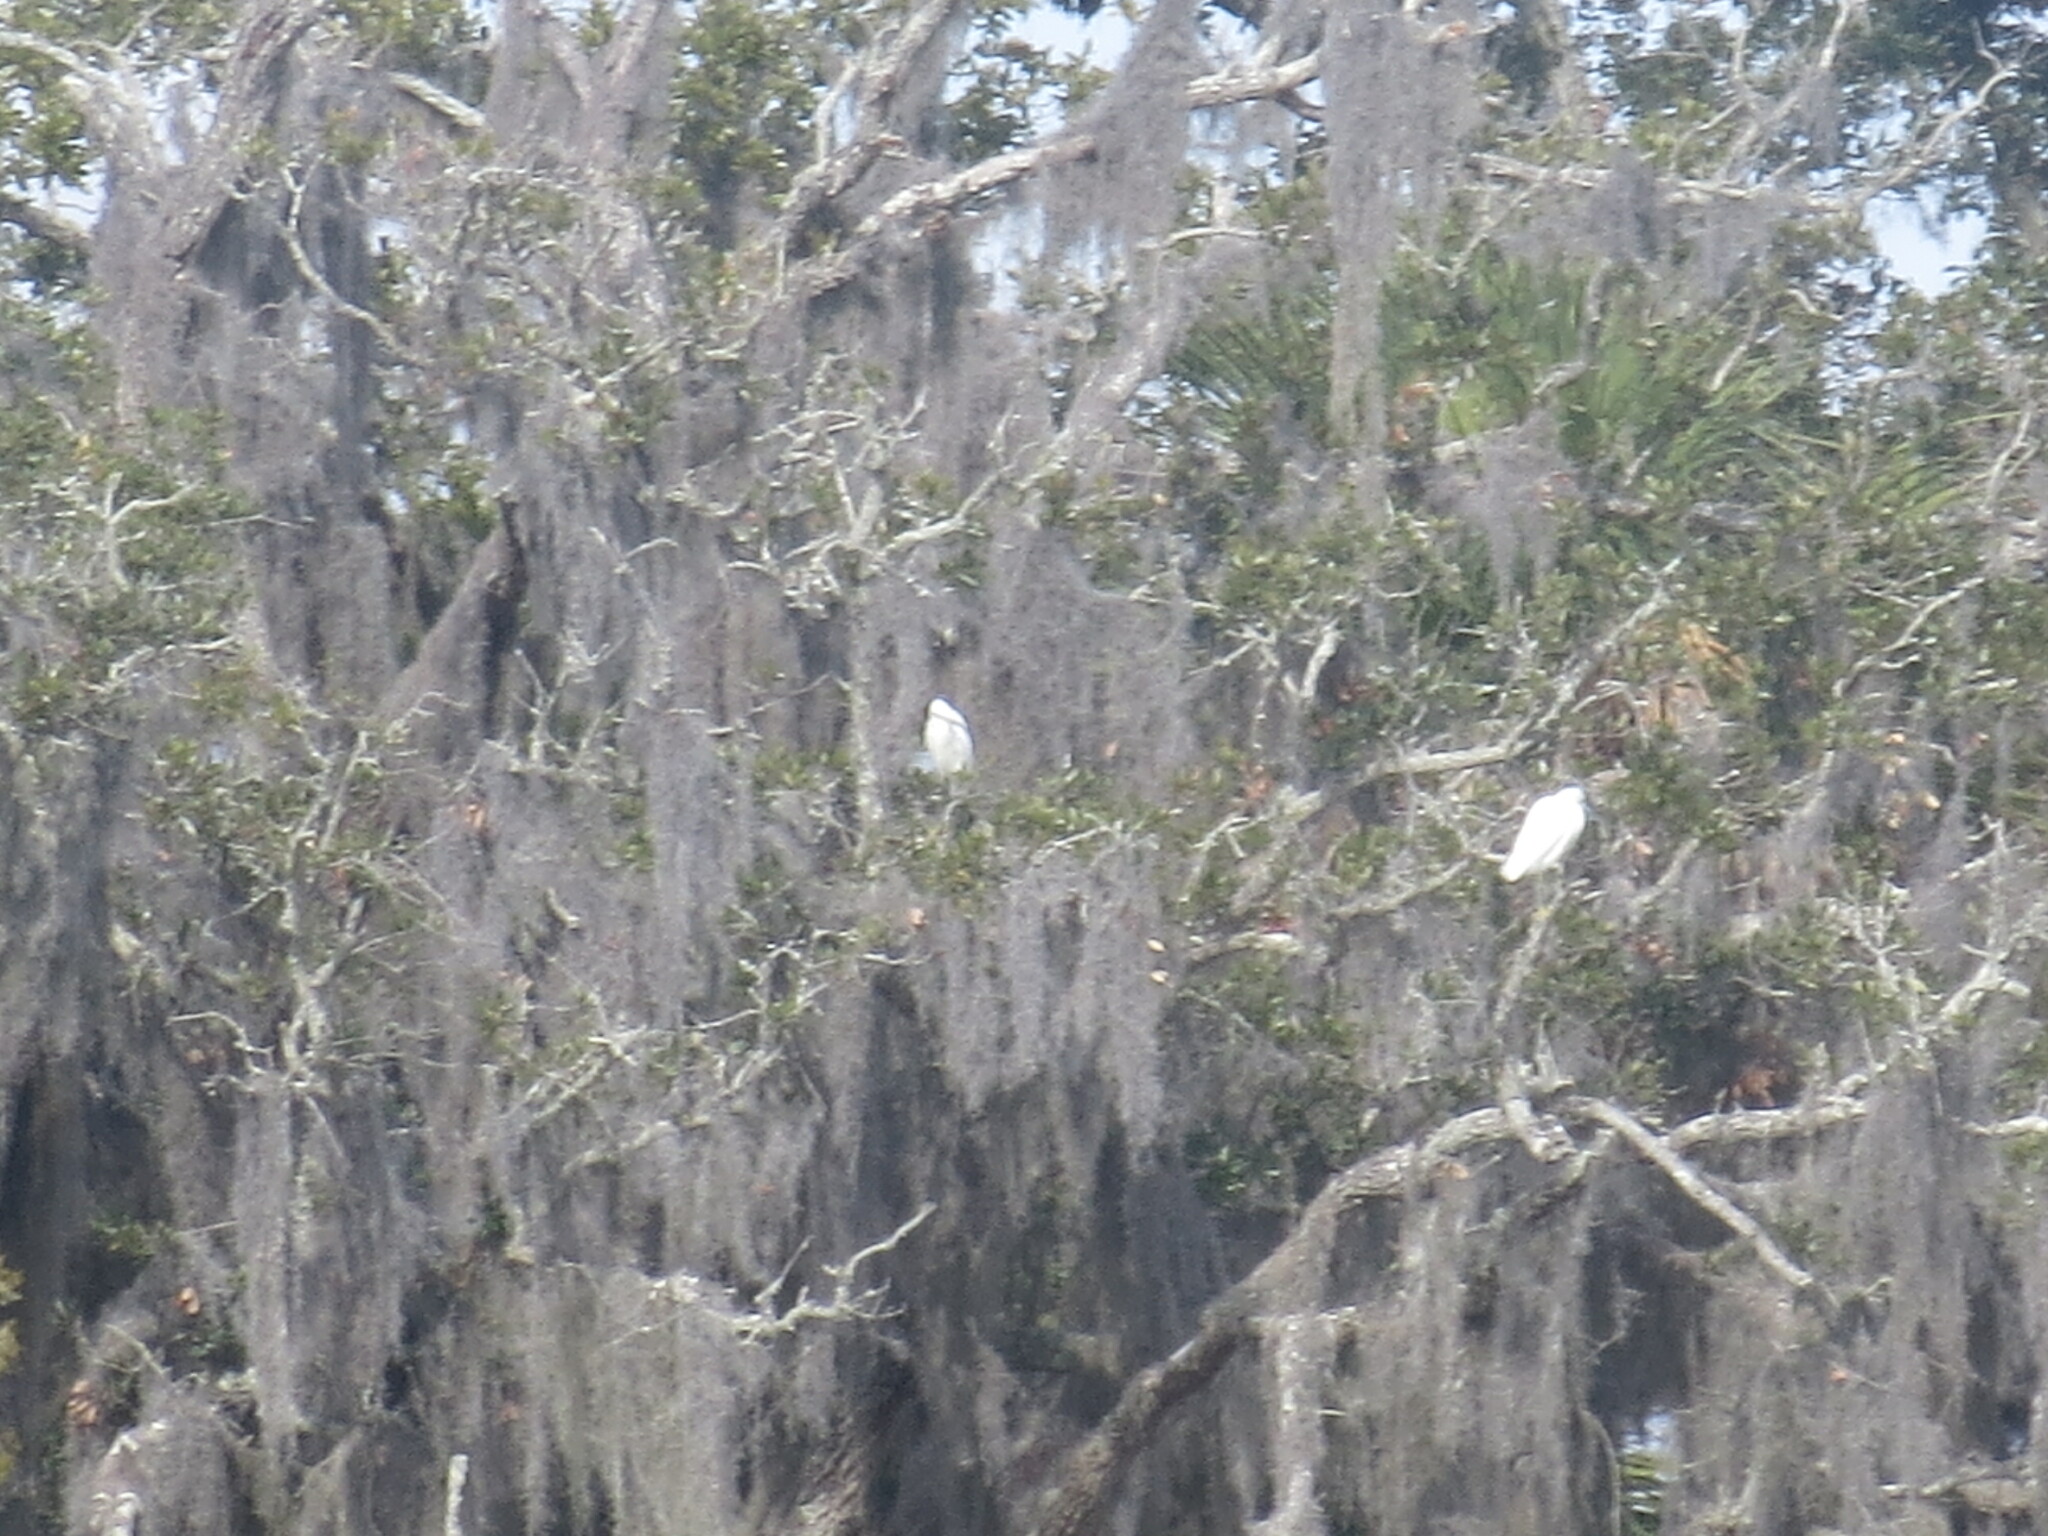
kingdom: Animalia
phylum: Chordata
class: Aves
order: Pelecaniformes
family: Ardeidae
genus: Egretta
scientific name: Egretta thula
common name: Snowy egret
